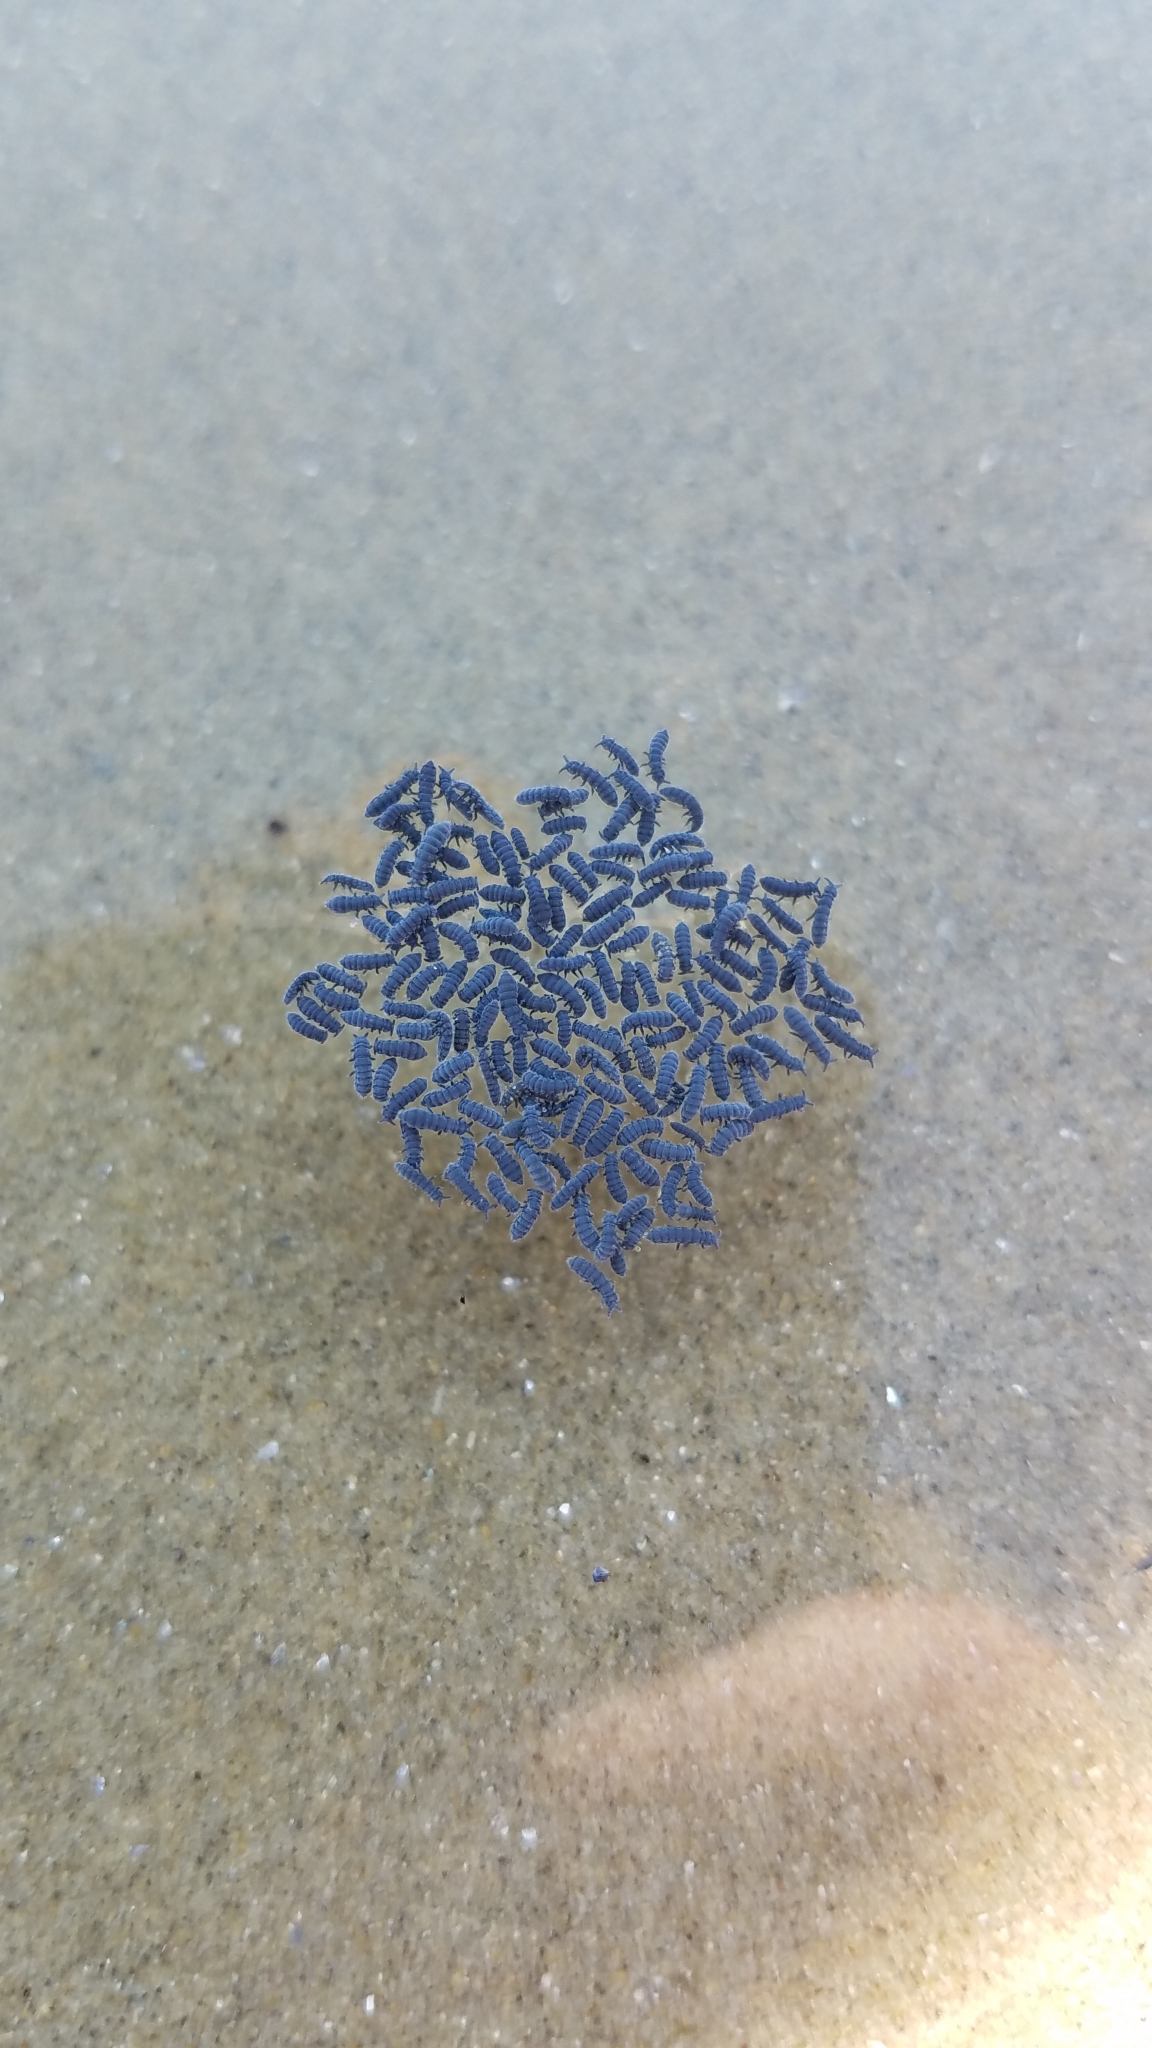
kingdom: Animalia
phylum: Arthropoda
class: Collembola
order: Poduromorpha
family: Neanuridae
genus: Anurida
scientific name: Anurida maritima
